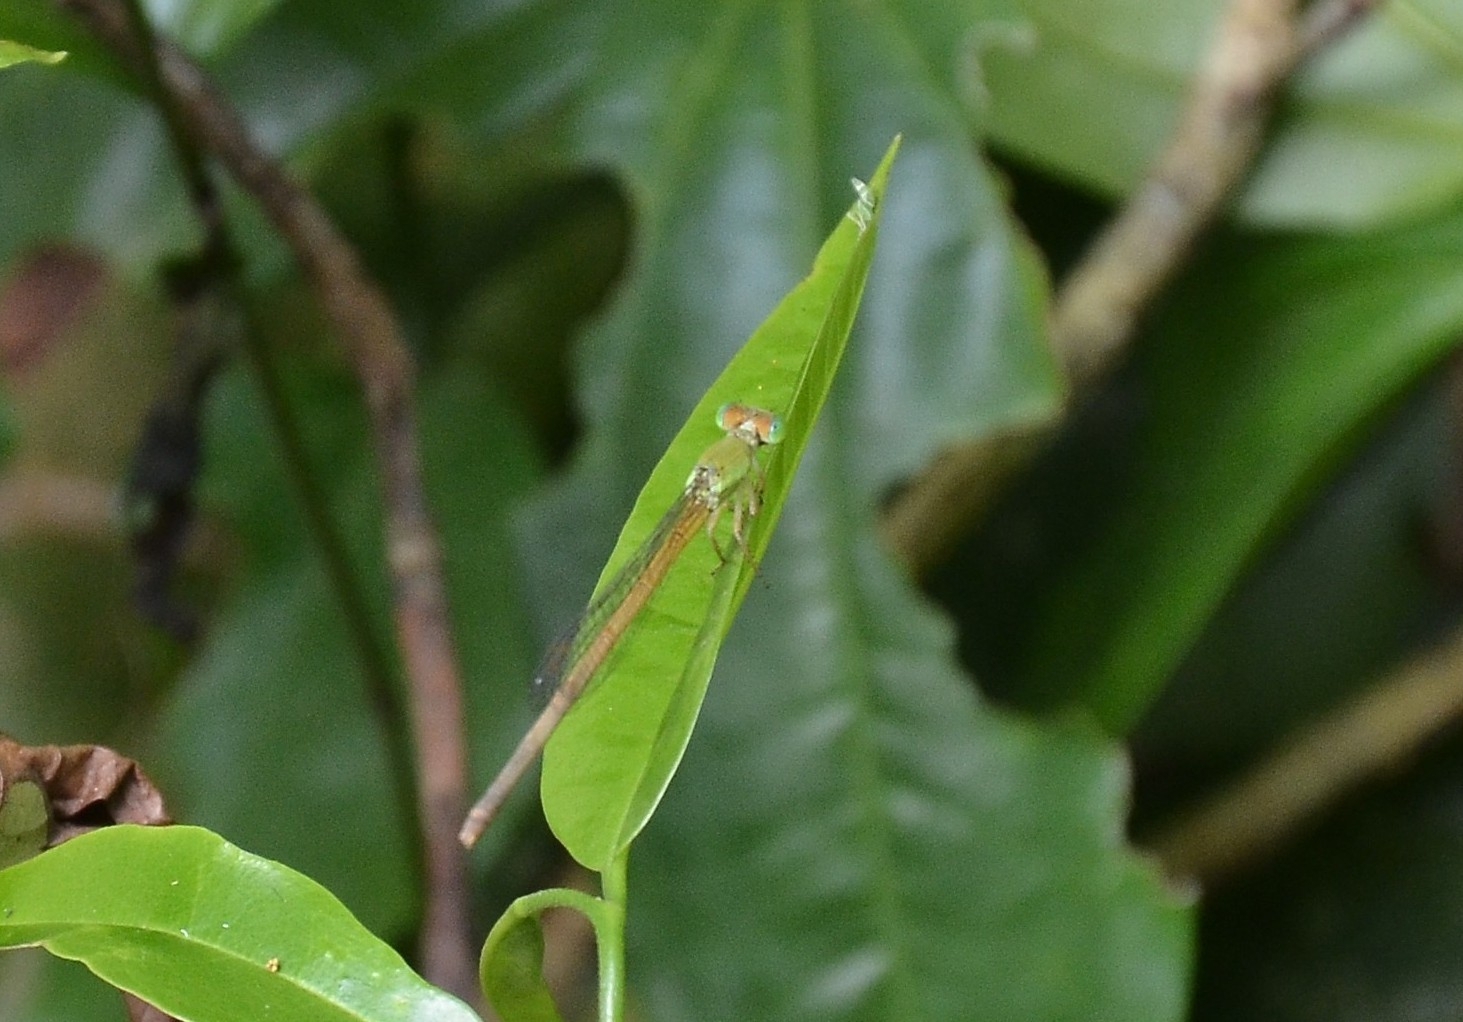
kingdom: Animalia
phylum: Arthropoda
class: Insecta
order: Odonata
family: Coenagrionidae
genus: Ceriagrion
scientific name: Ceriagrion coromandelianum
